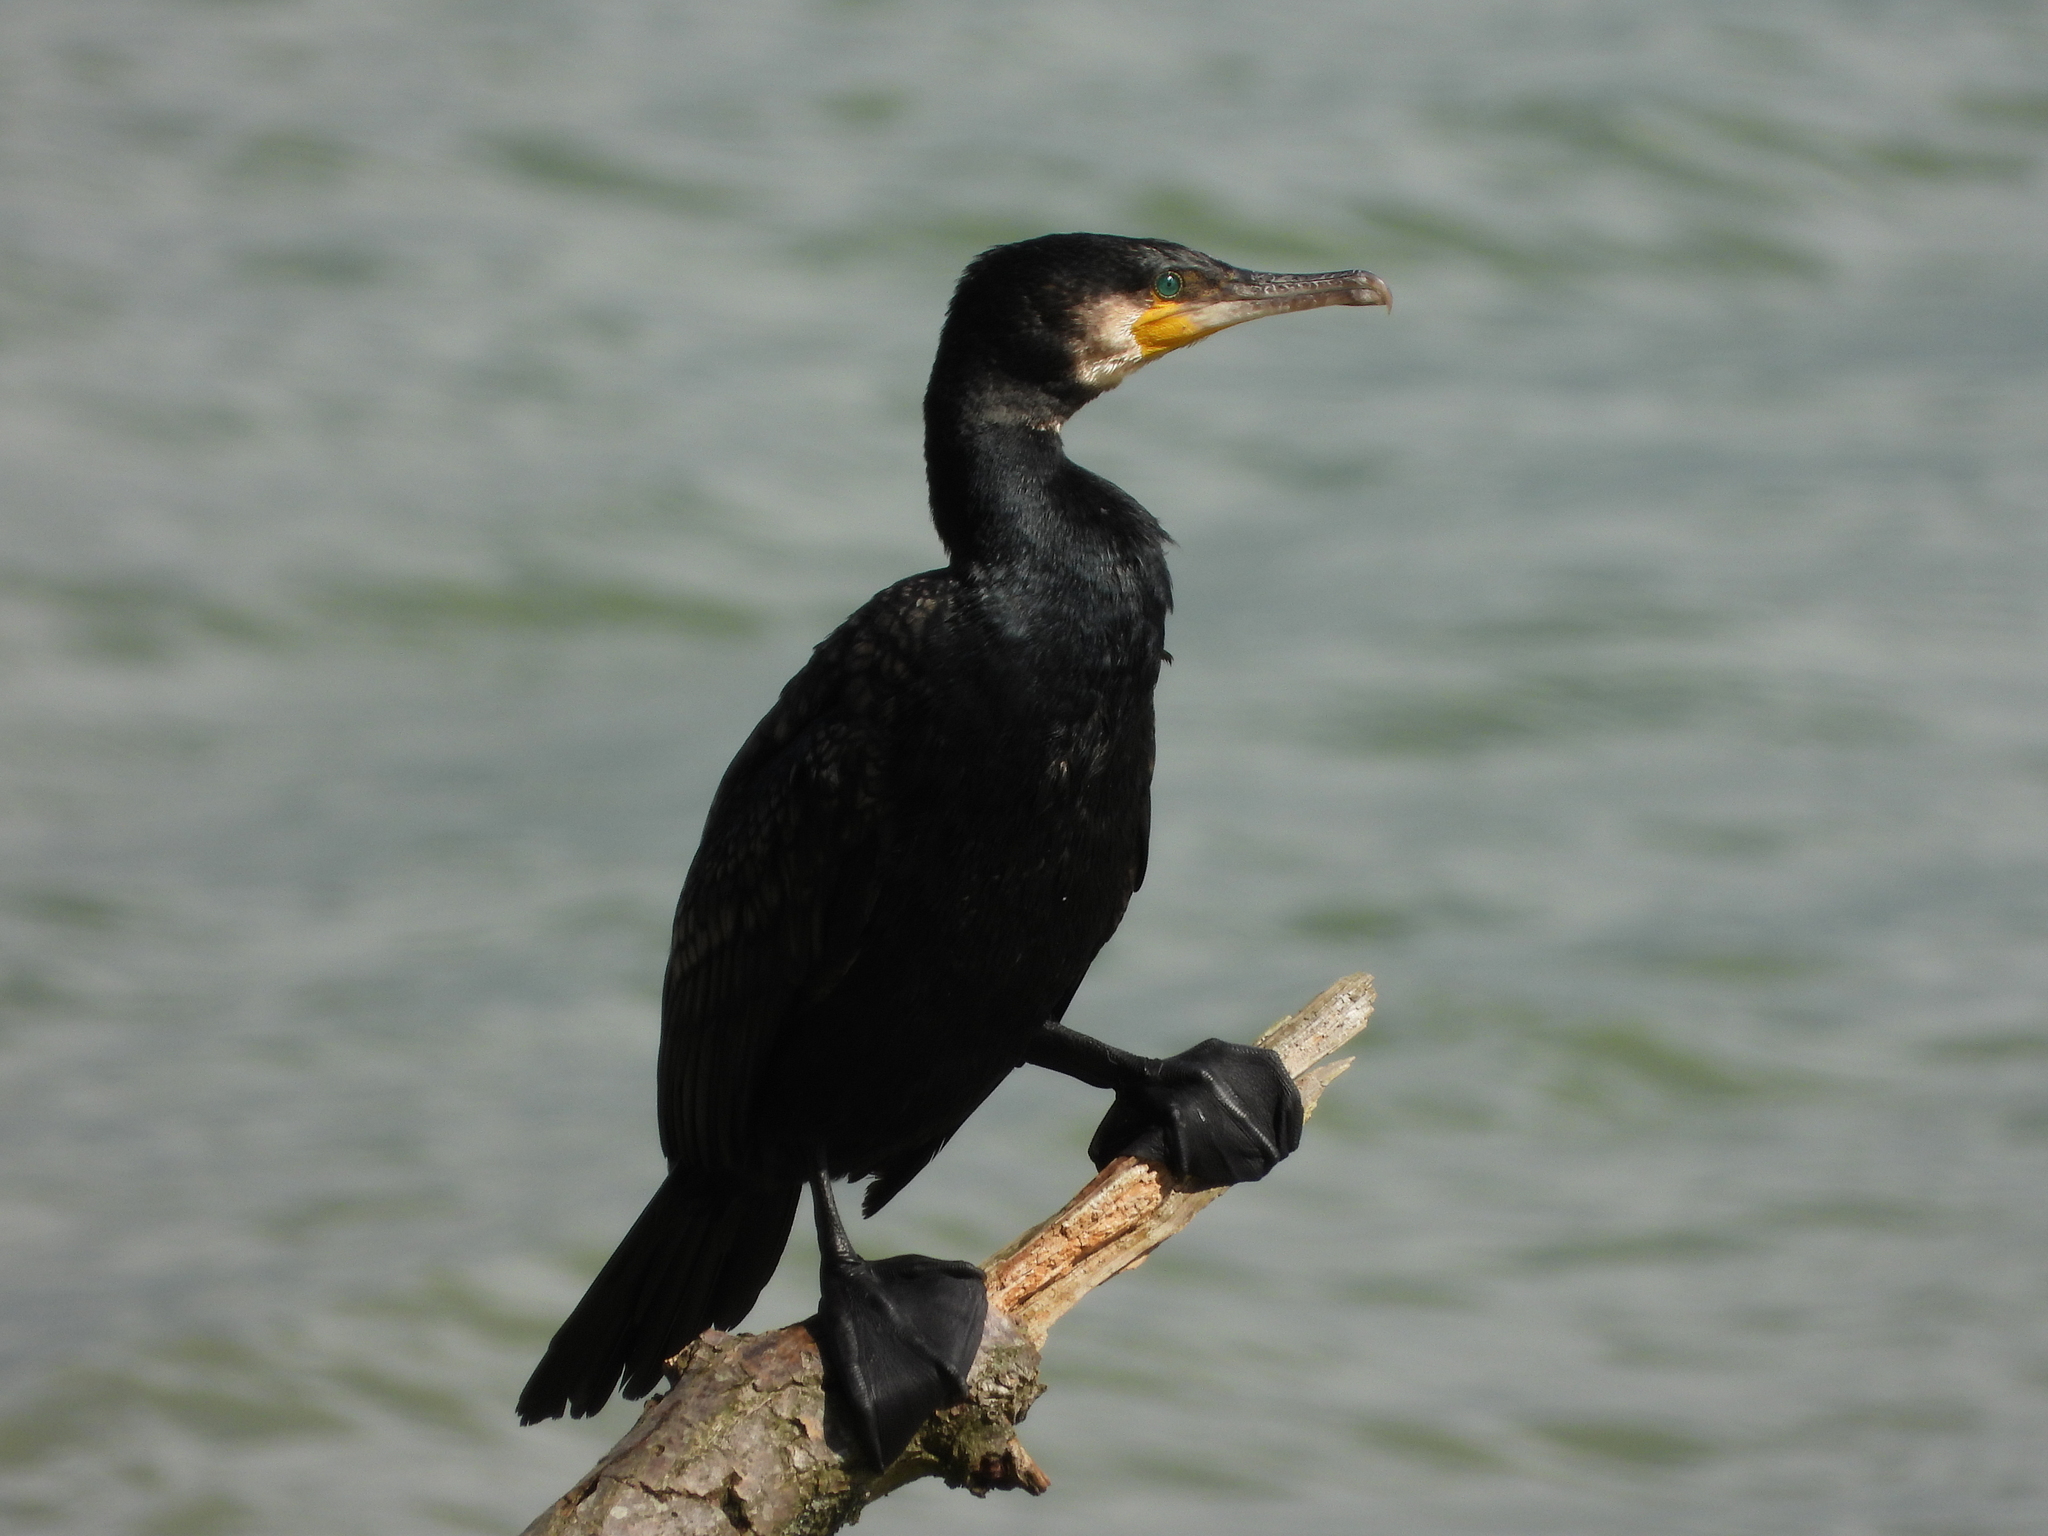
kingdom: Animalia
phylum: Chordata
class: Aves
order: Suliformes
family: Phalacrocoracidae
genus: Phalacrocorax
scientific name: Phalacrocorax carbo
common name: Great cormorant
